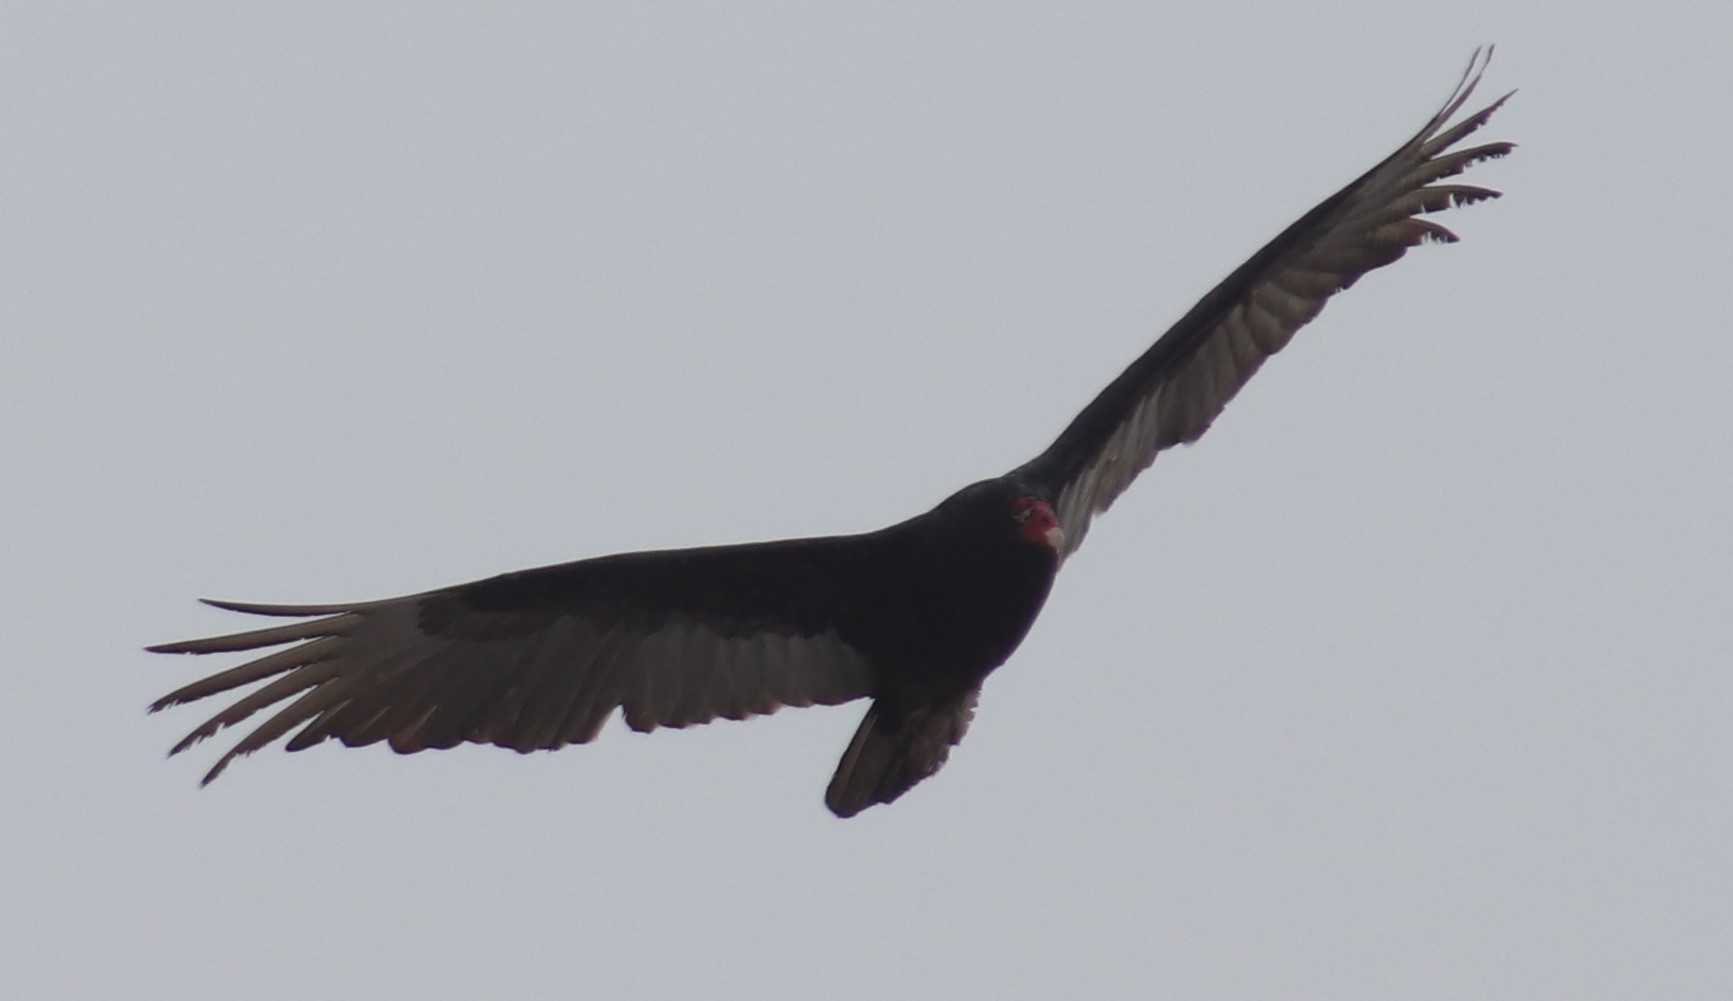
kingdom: Animalia
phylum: Chordata
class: Aves
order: Accipitriformes
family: Cathartidae
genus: Cathartes
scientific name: Cathartes aura
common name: Turkey vulture
